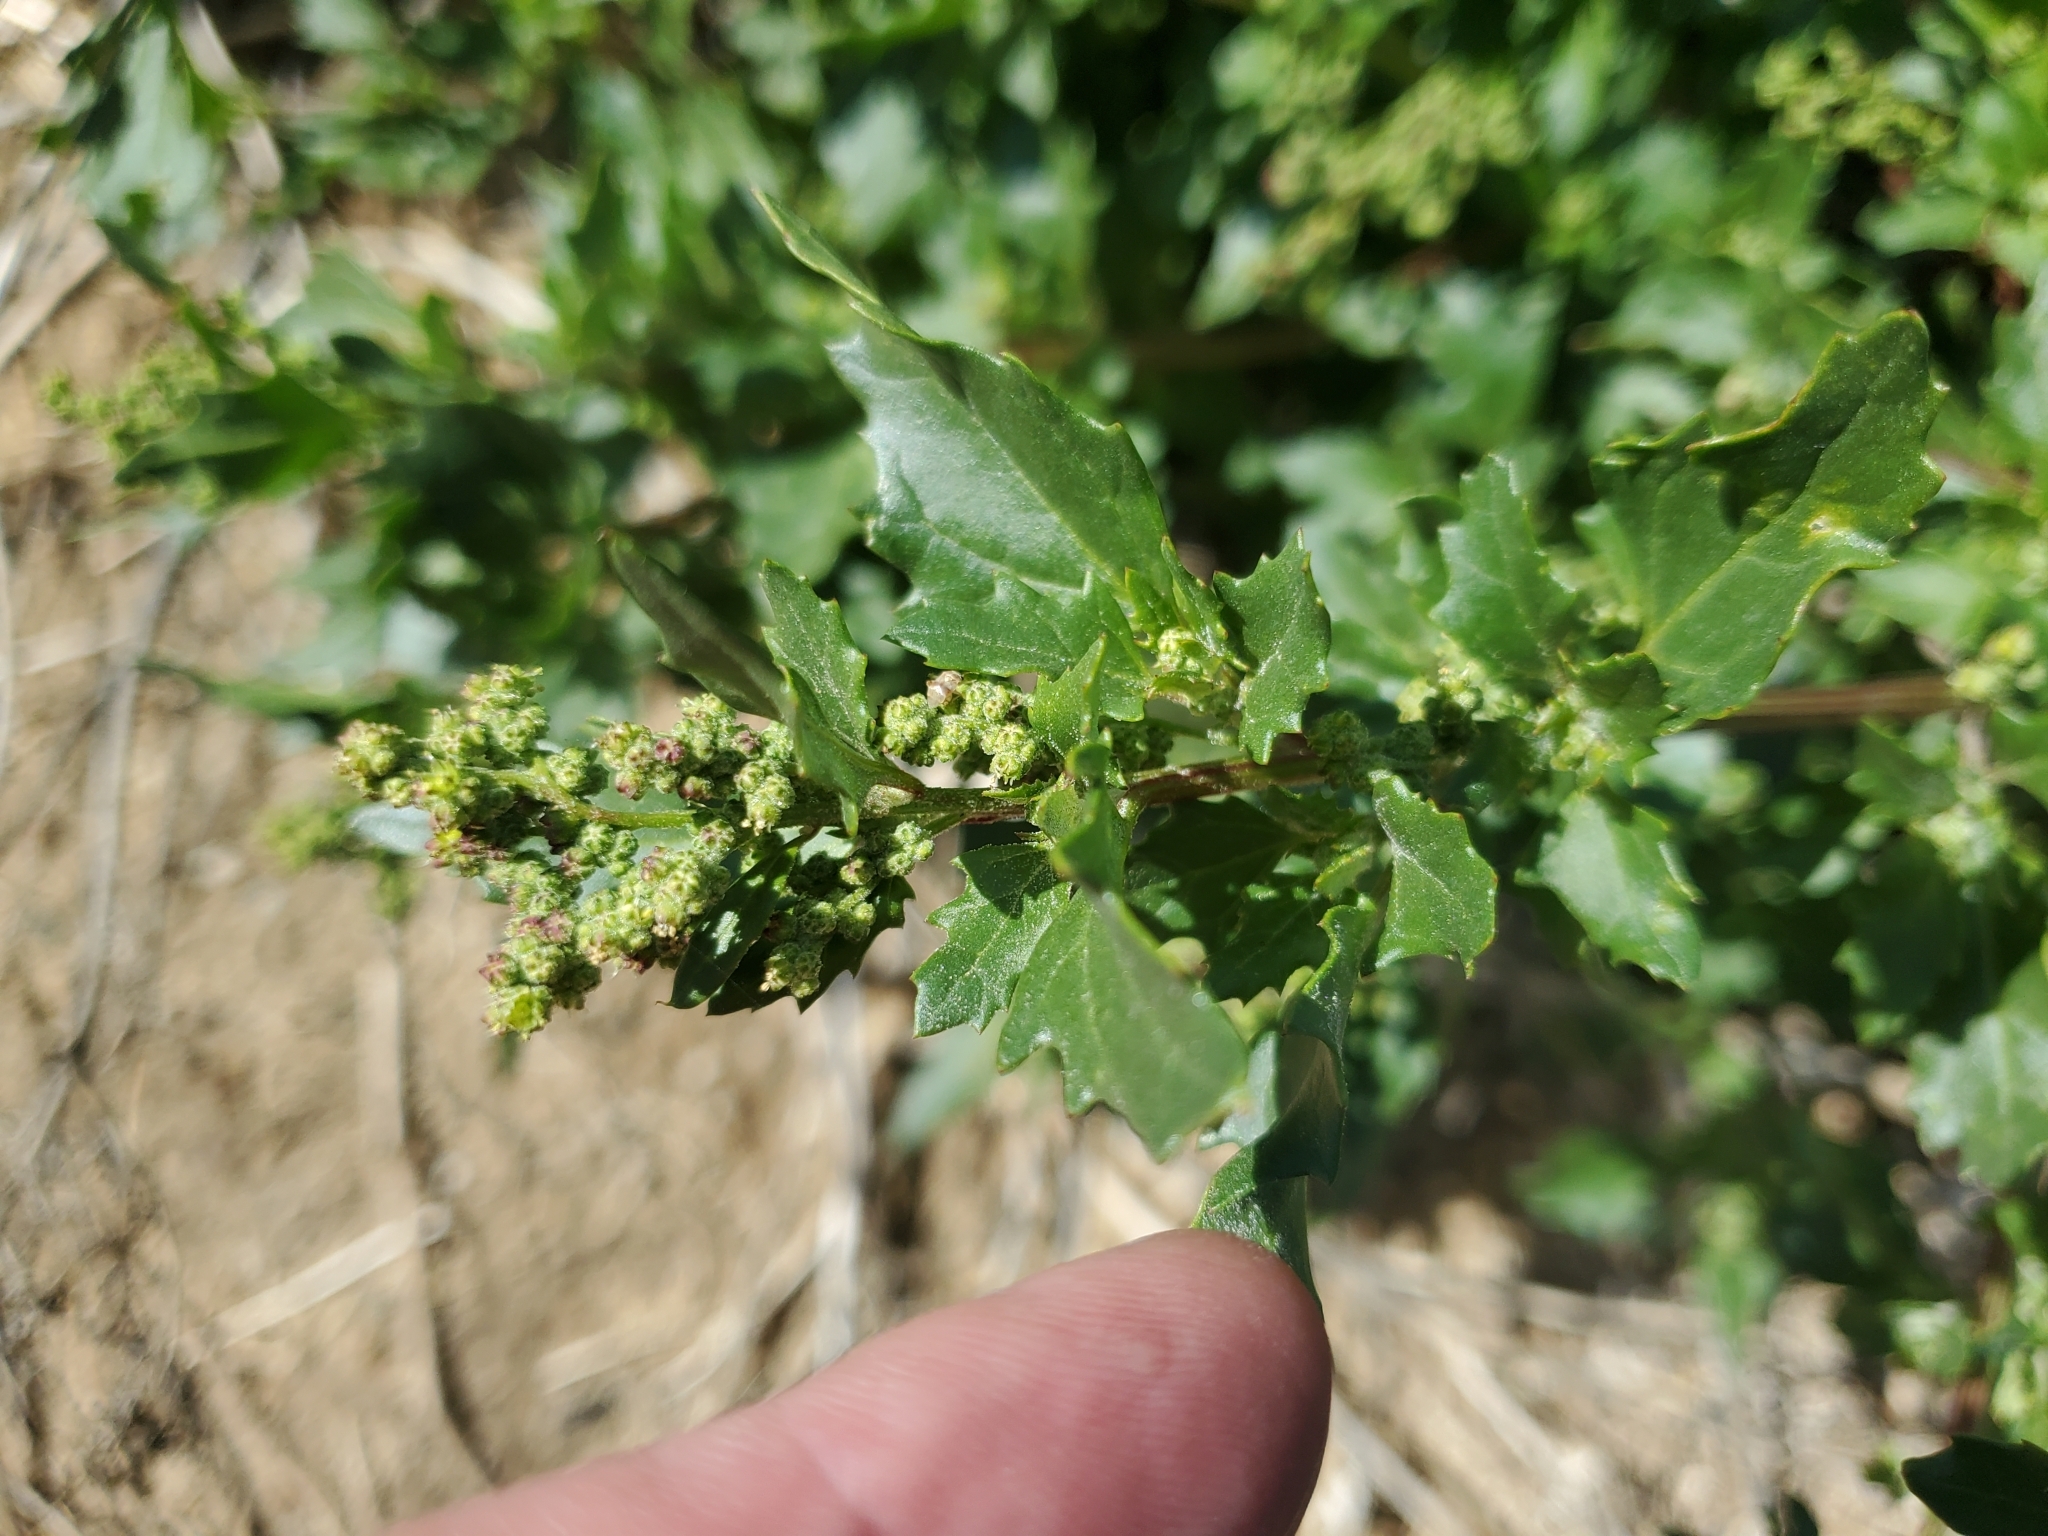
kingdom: Plantae
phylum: Tracheophyta
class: Magnoliopsida
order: Caryophyllales
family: Amaranthaceae
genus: Chenopodiastrum
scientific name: Chenopodiastrum murale
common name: Sowbane
